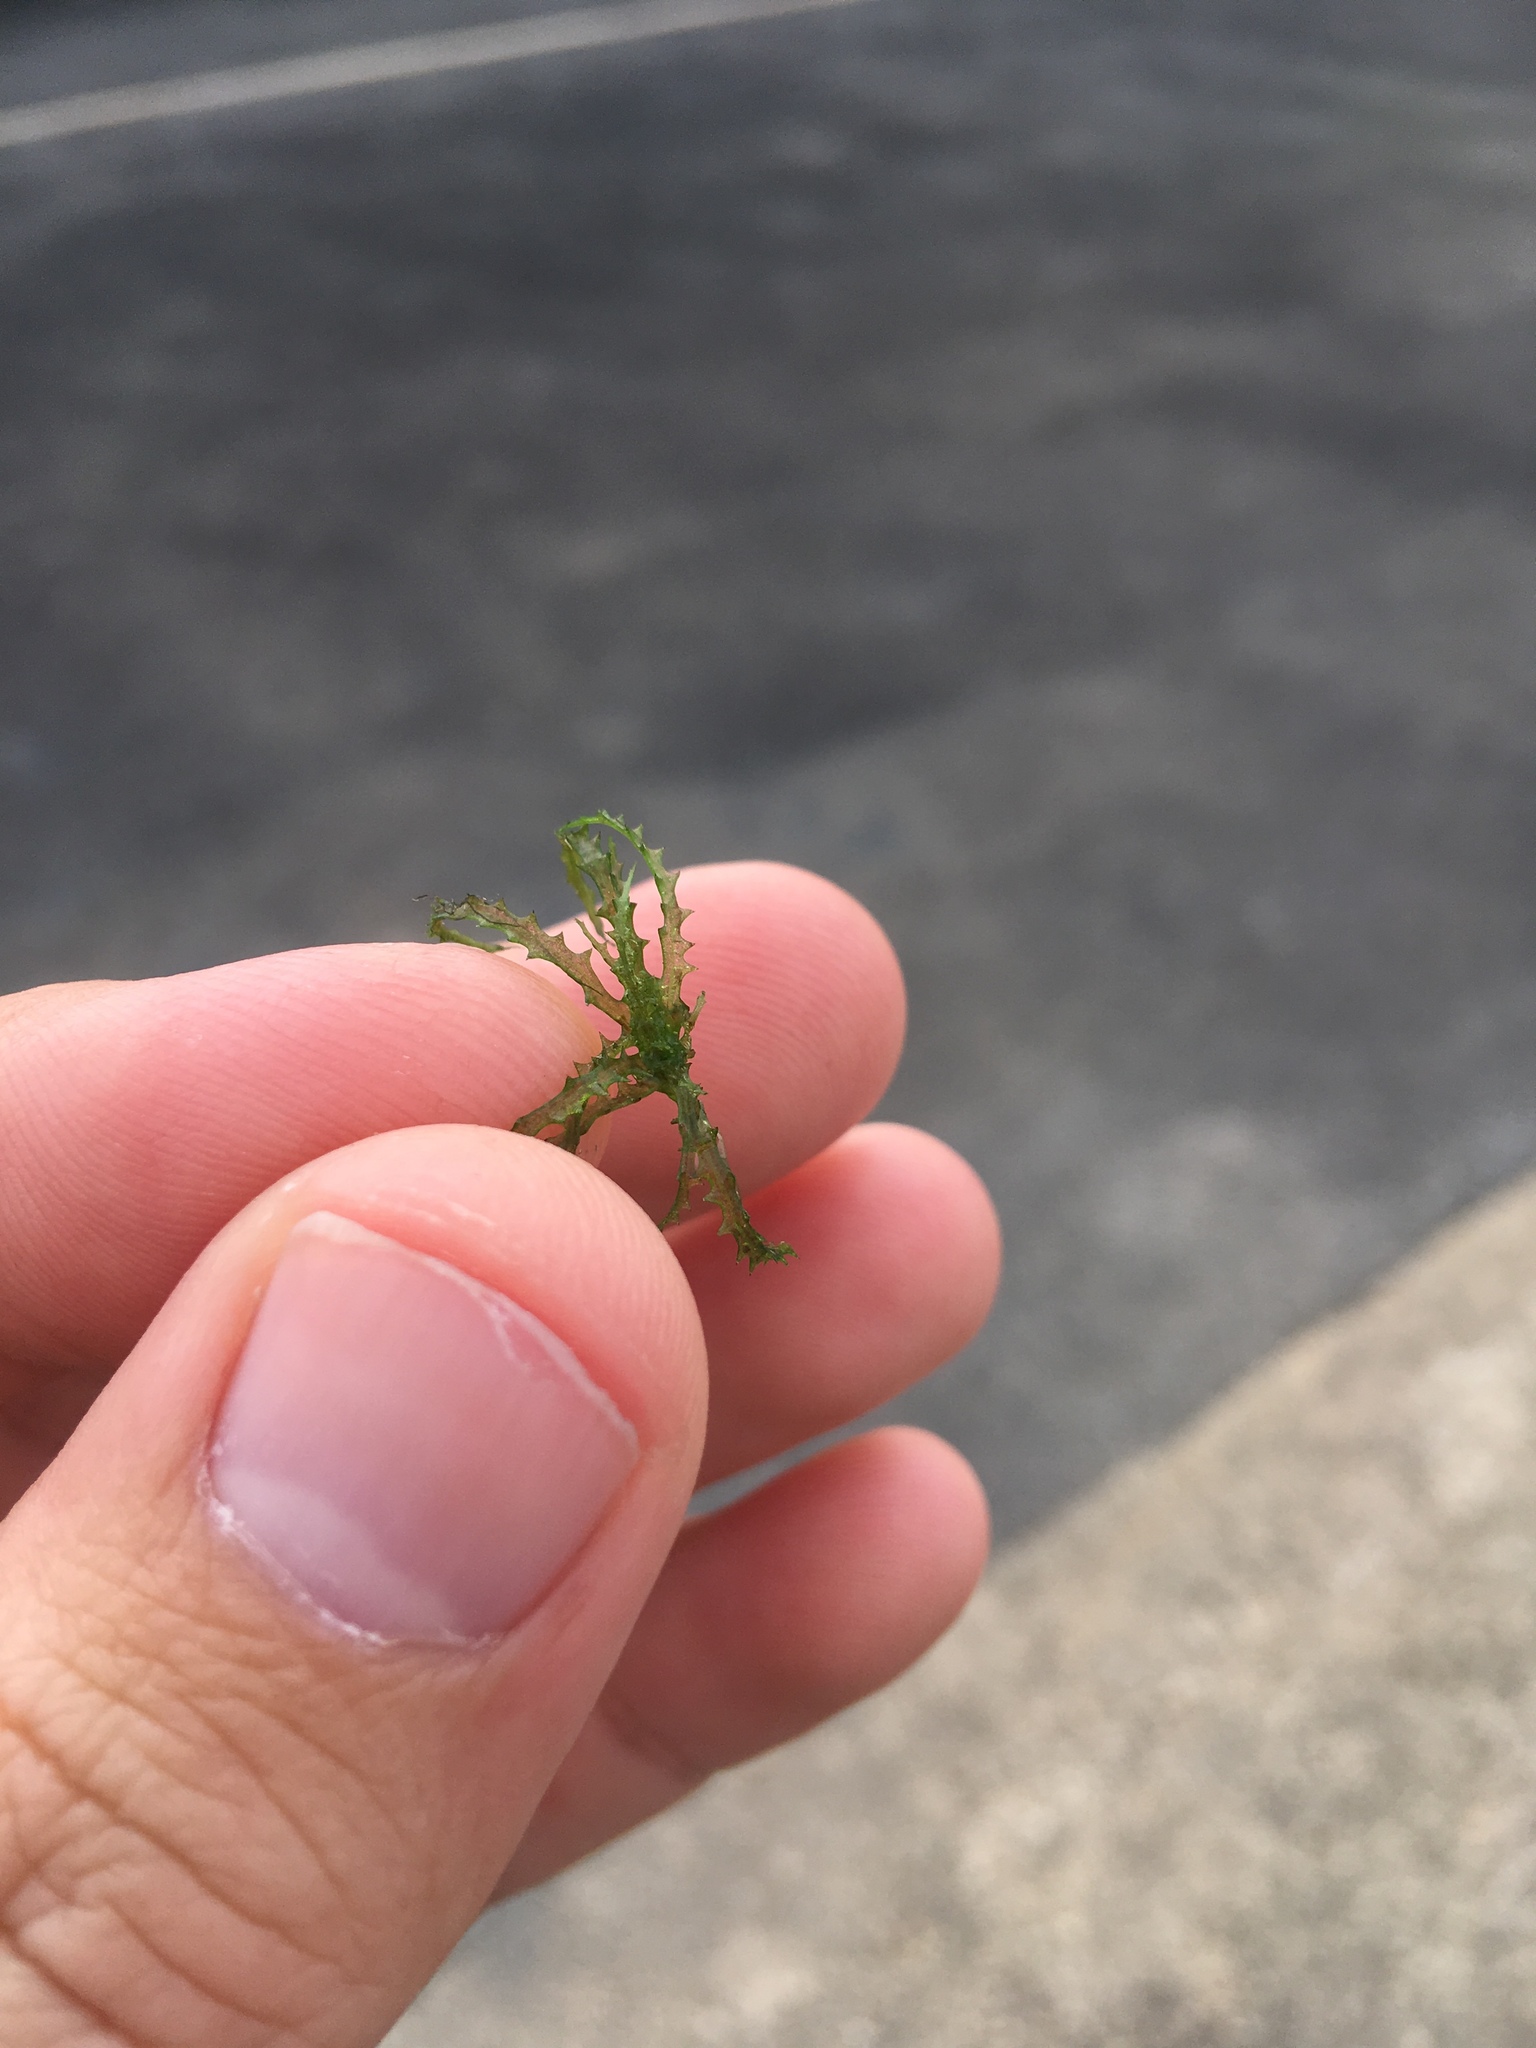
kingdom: Plantae
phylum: Tracheophyta
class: Liliopsida
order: Alismatales
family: Hydrocharitaceae
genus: Najas
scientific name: Najas minor
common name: Brittle naiad
